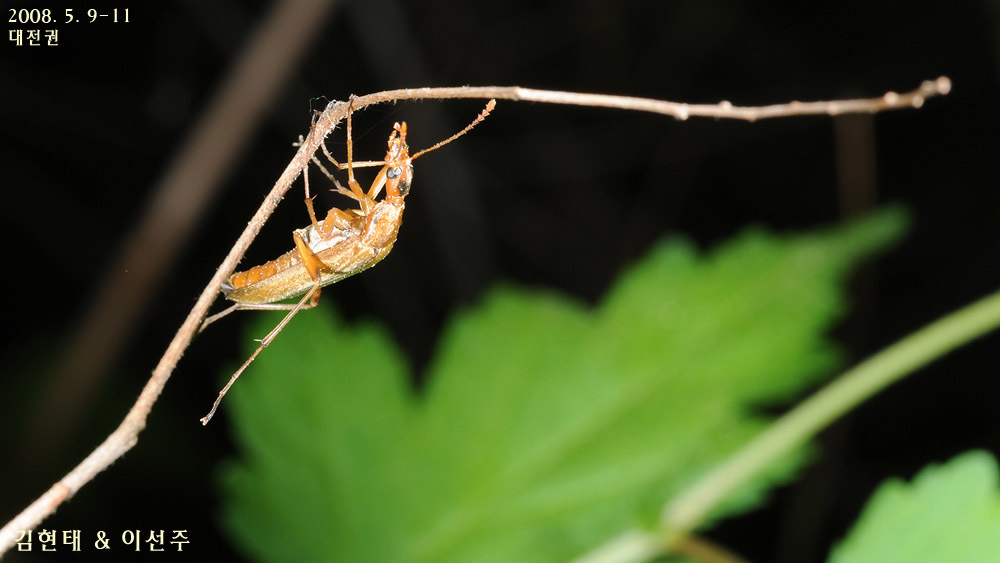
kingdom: Animalia
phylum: Arthropoda
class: Insecta
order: Coleoptera
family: Stenotrachelidae
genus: Cephaloon
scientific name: Cephaloon pallens
